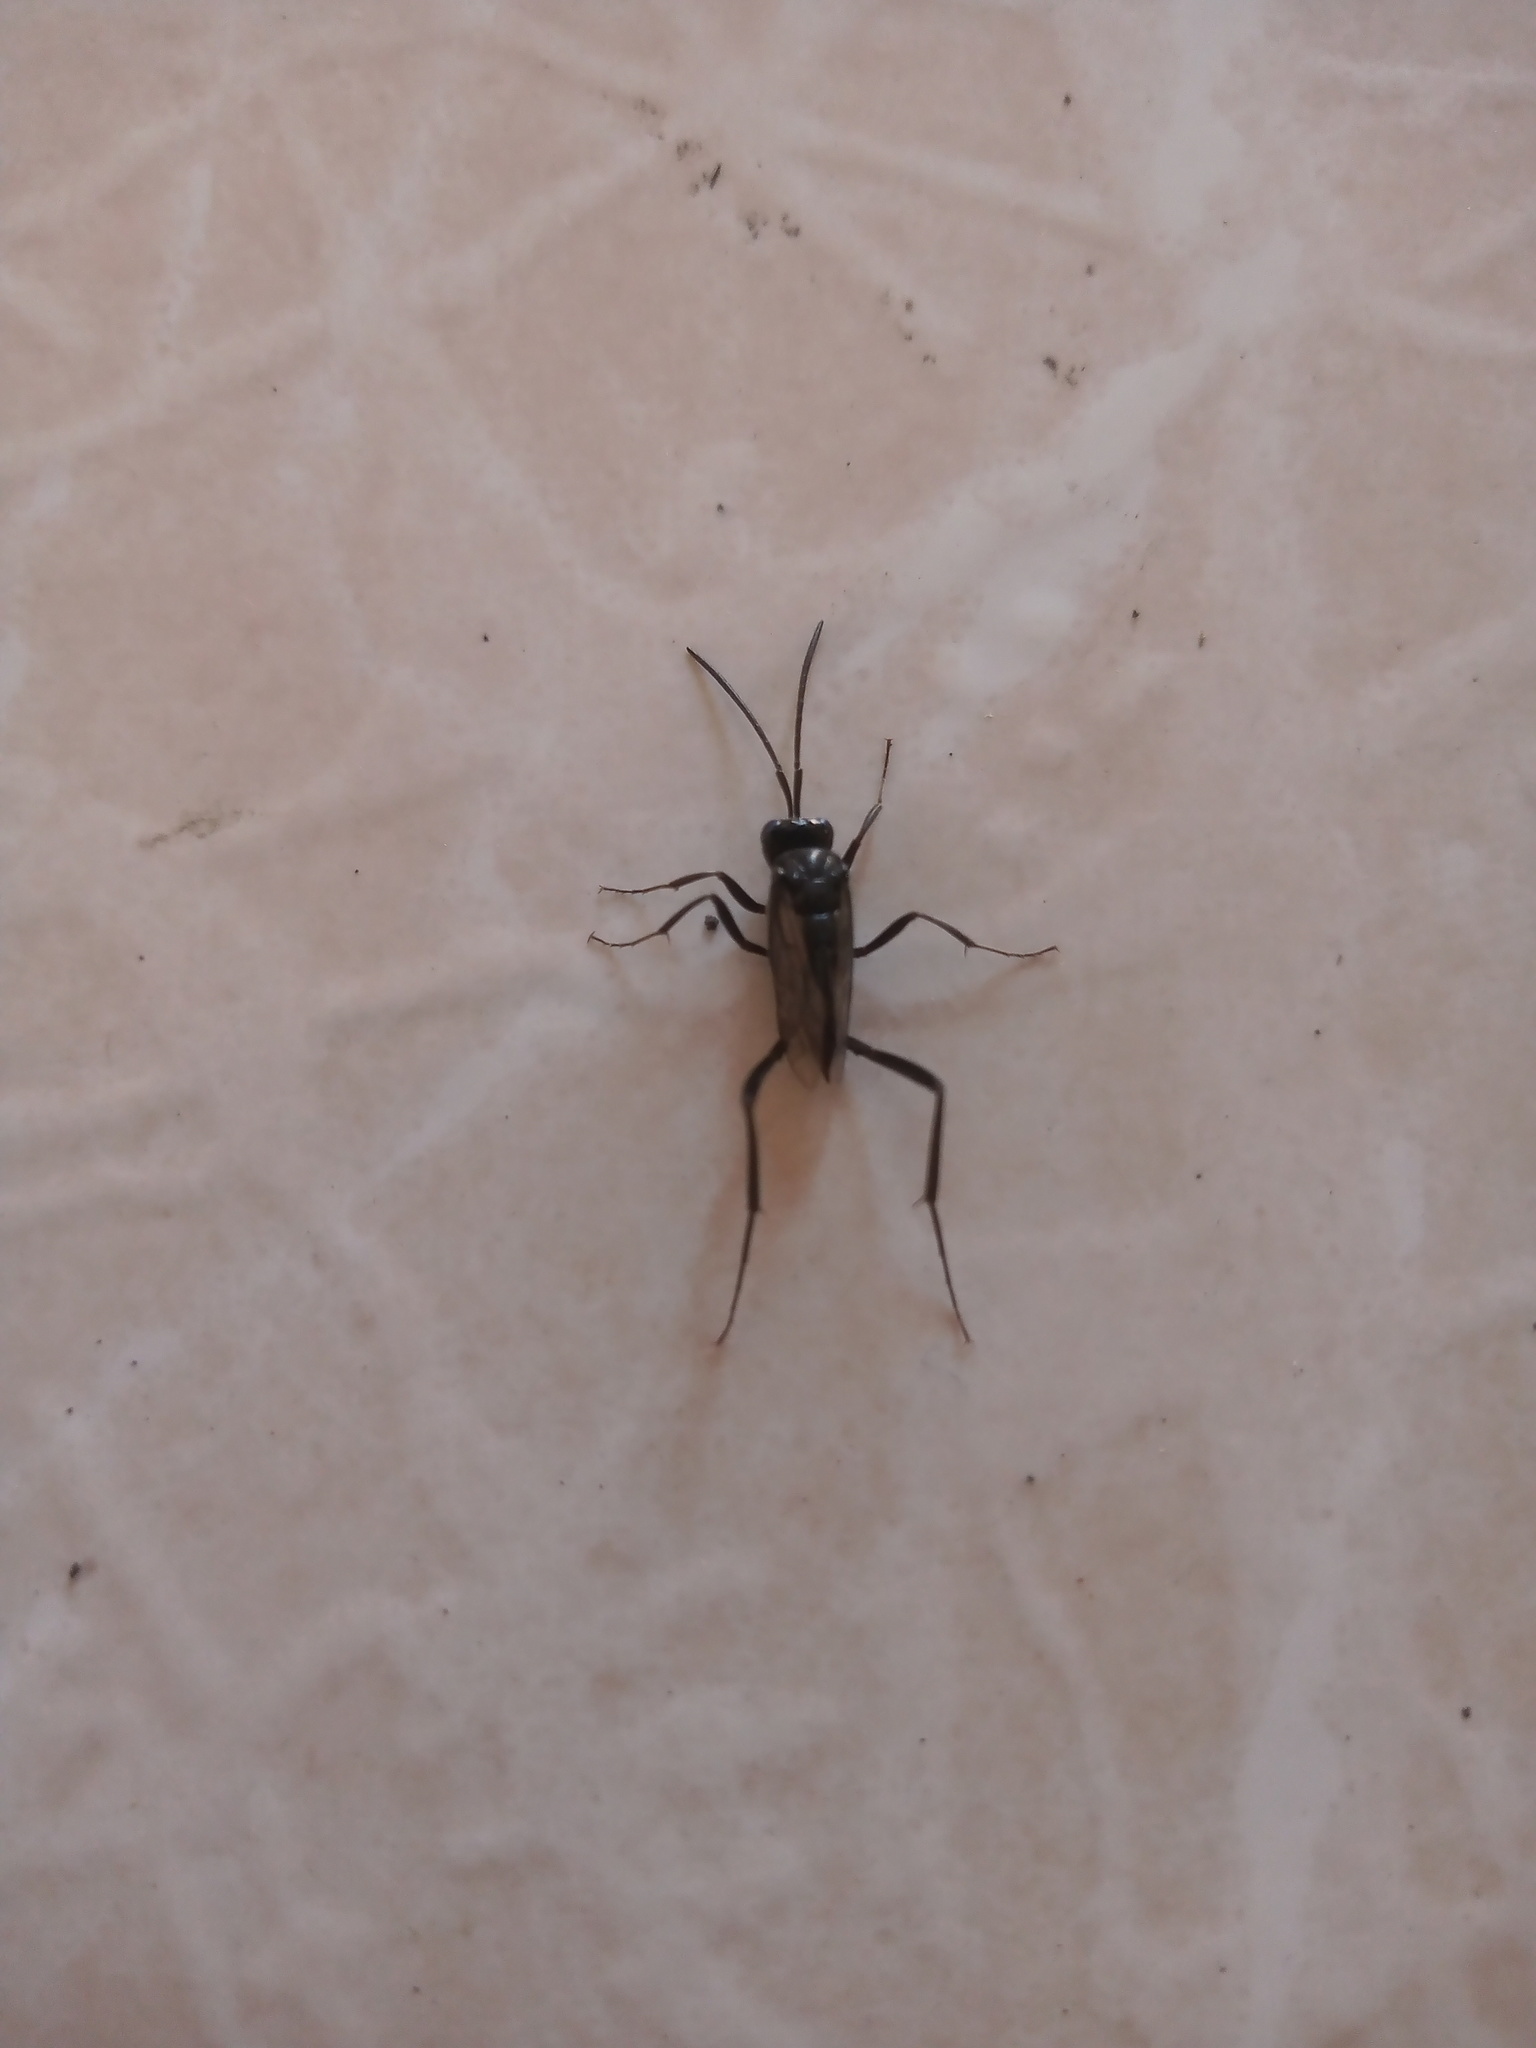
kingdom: Animalia
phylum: Arthropoda
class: Insecta
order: Hymenoptera
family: Evaniidae
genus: Evania
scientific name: Evania appendigaster
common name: Ensign wasp
